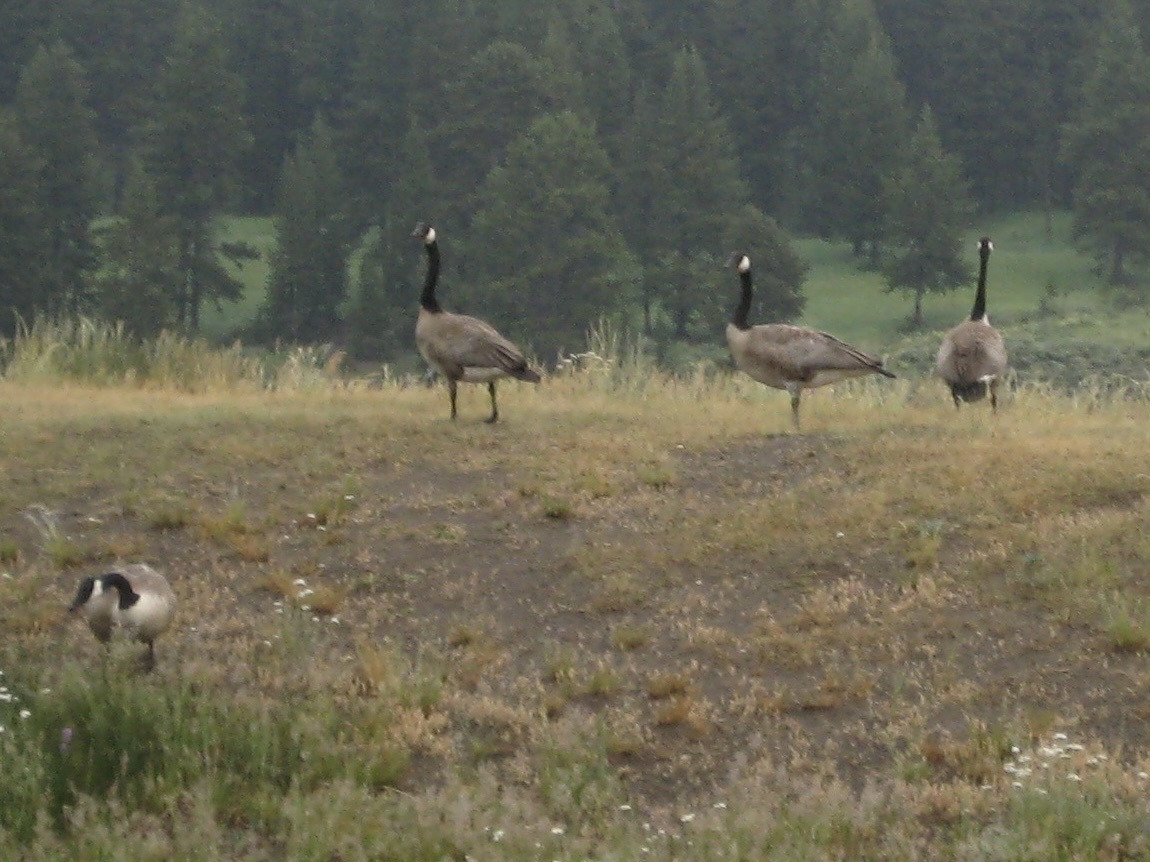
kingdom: Animalia
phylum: Chordata
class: Aves
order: Anseriformes
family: Anatidae
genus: Branta
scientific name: Branta canadensis
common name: Canada goose
